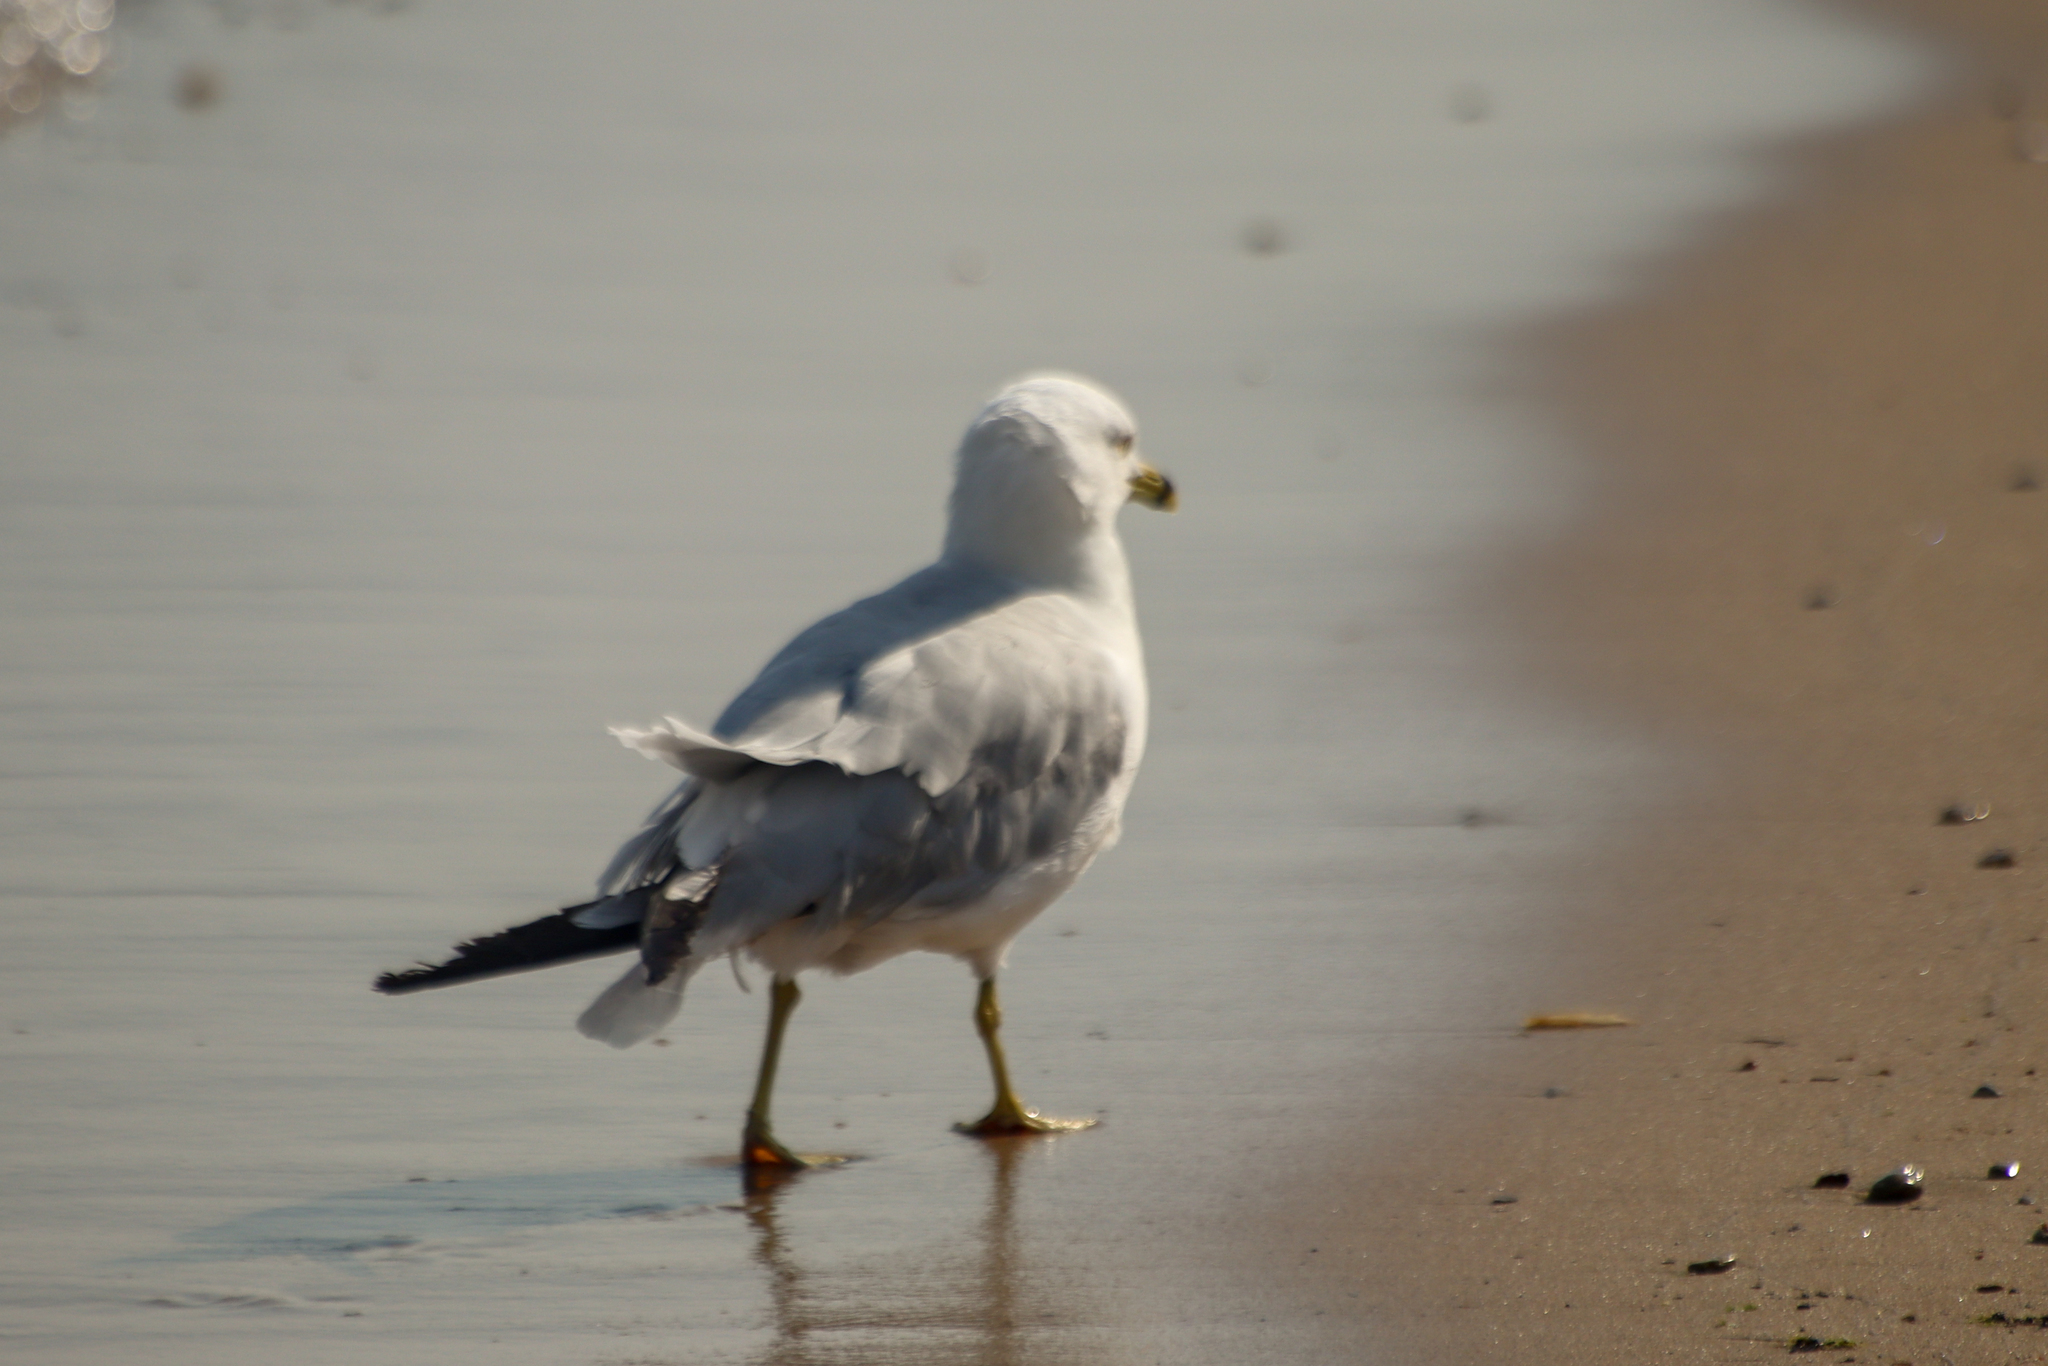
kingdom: Animalia
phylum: Chordata
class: Aves
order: Charadriiformes
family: Laridae
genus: Larus
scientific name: Larus delawarensis
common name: Ring-billed gull
